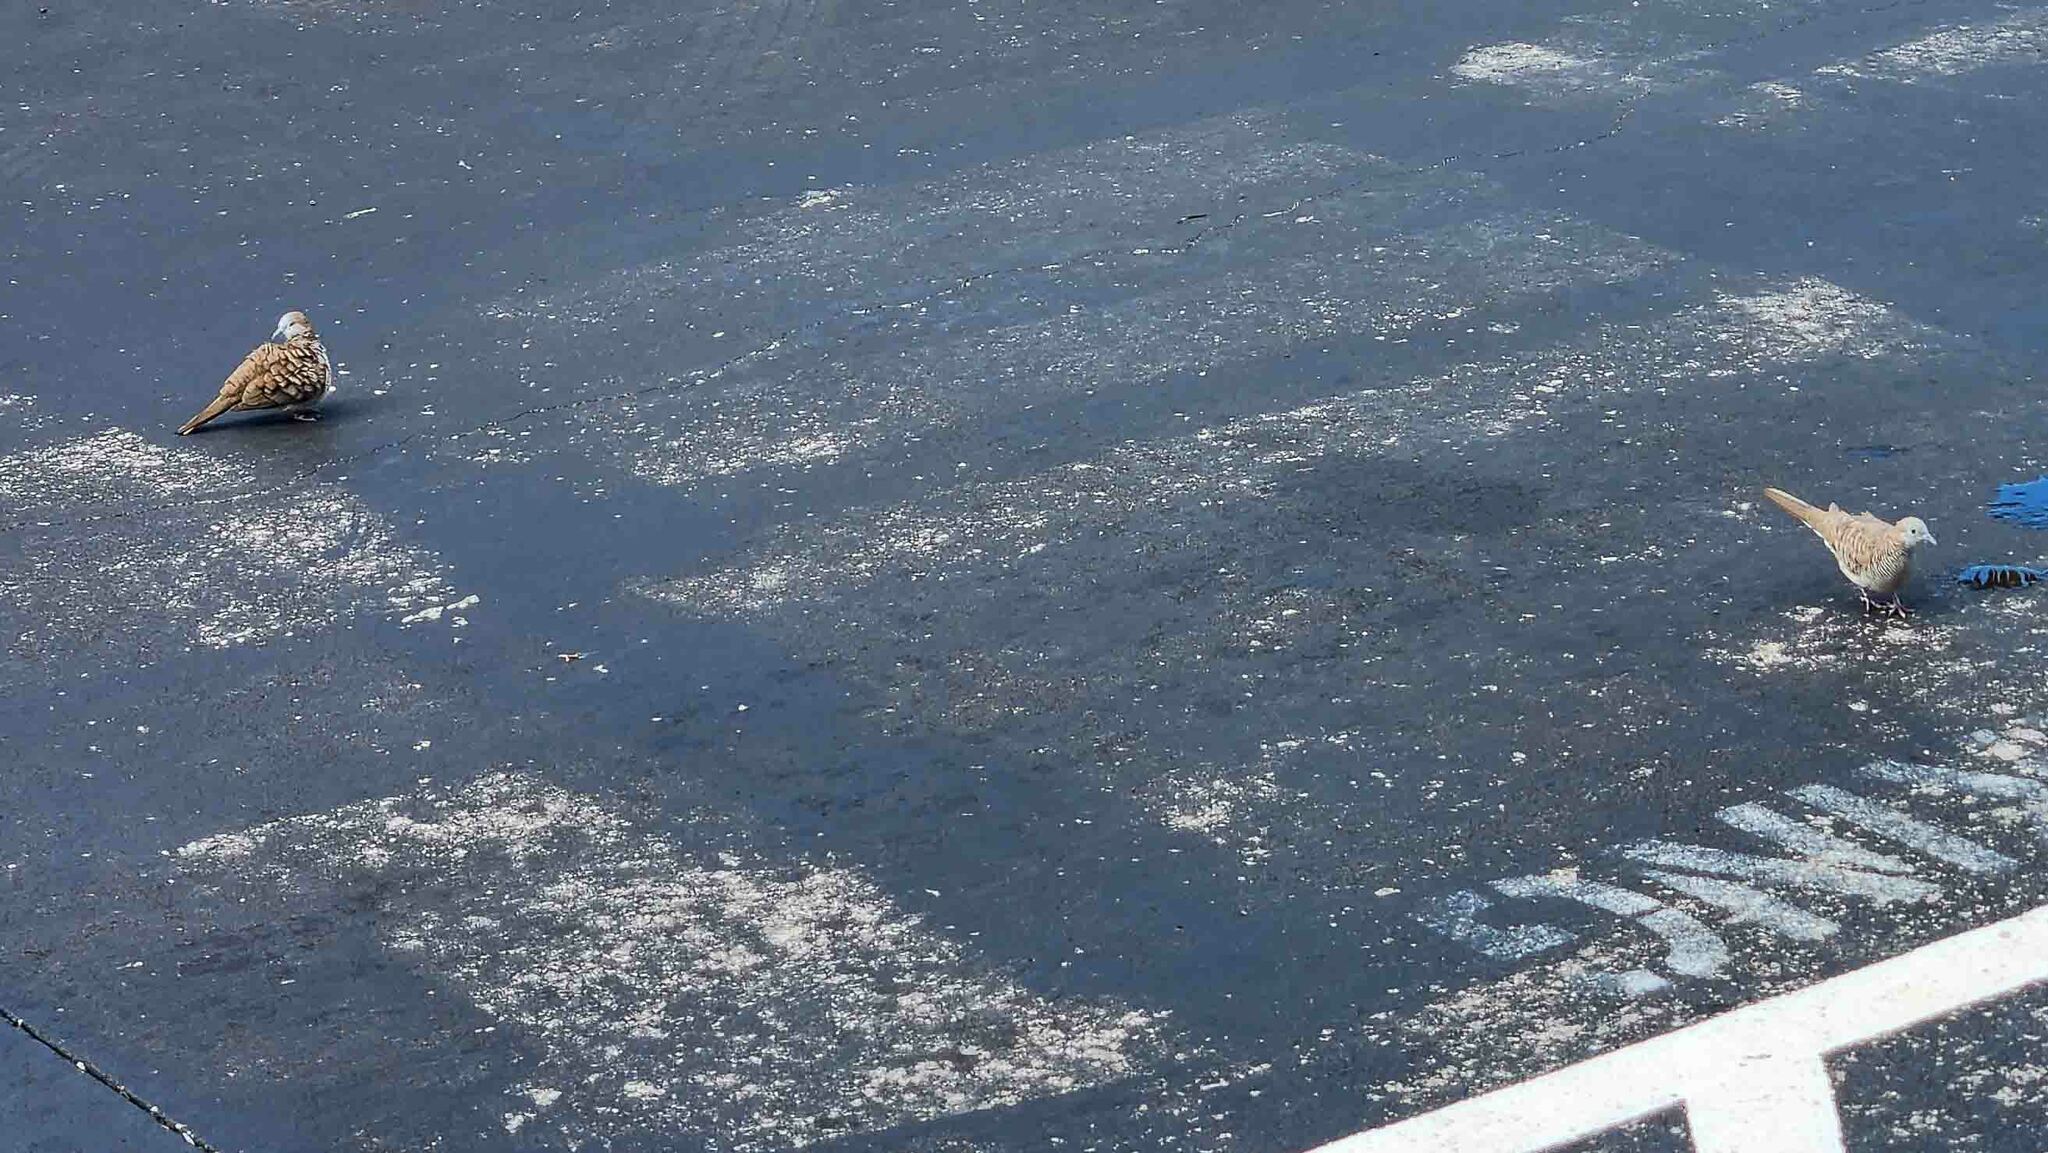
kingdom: Animalia
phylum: Chordata
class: Aves
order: Columbiformes
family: Columbidae
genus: Geopelia
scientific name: Geopelia striata
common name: Zebra dove
